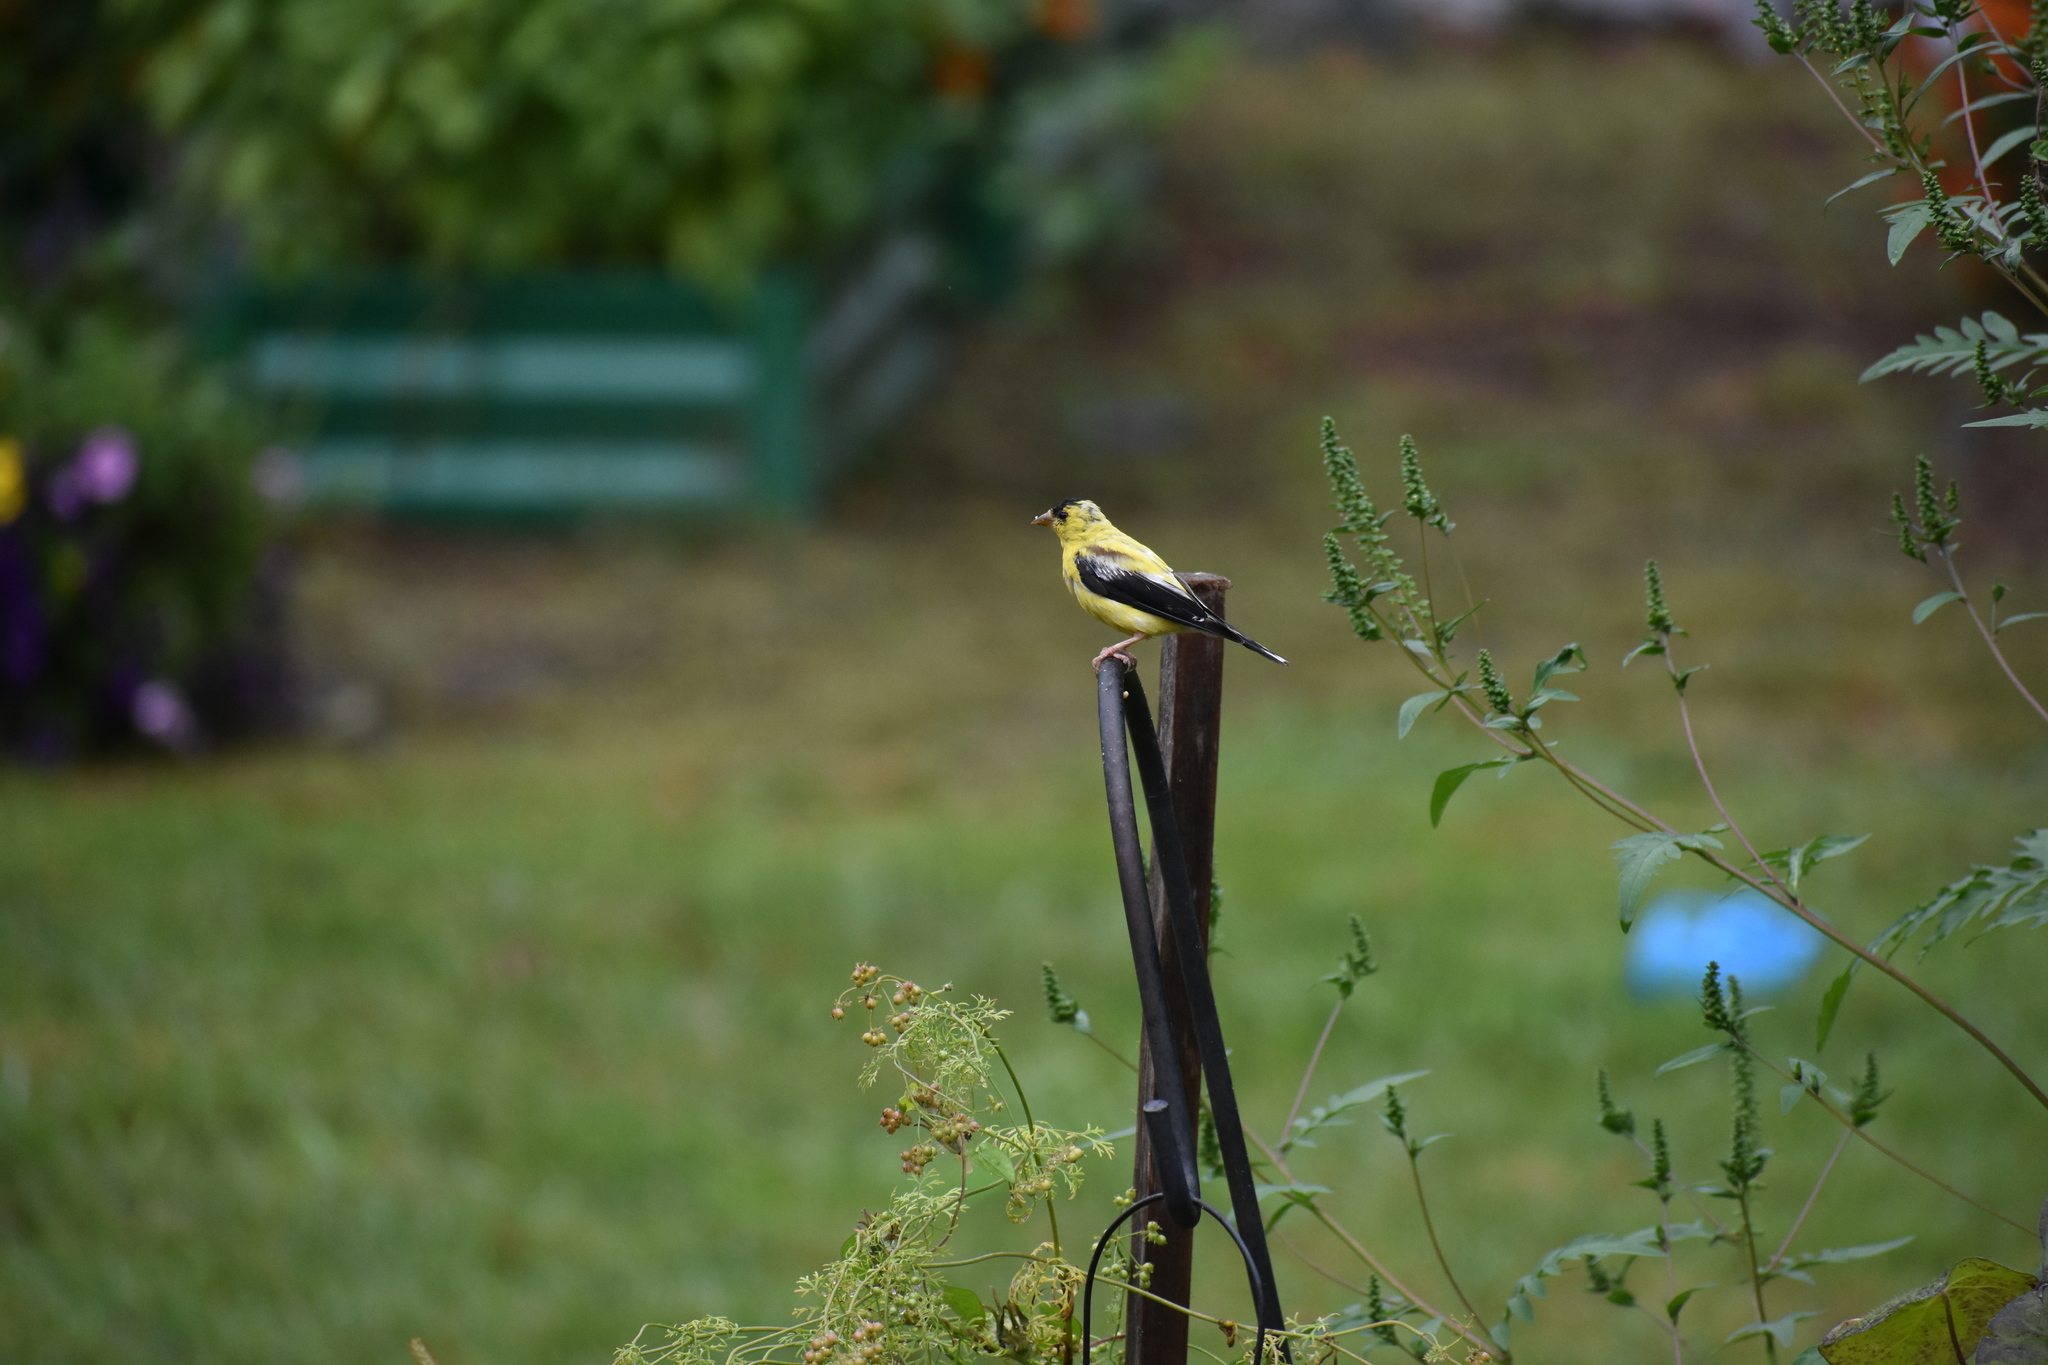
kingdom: Animalia
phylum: Chordata
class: Aves
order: Passeriformes
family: Fringillidae
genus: Spinus
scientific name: Spinus tristis
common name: American goldfinch
